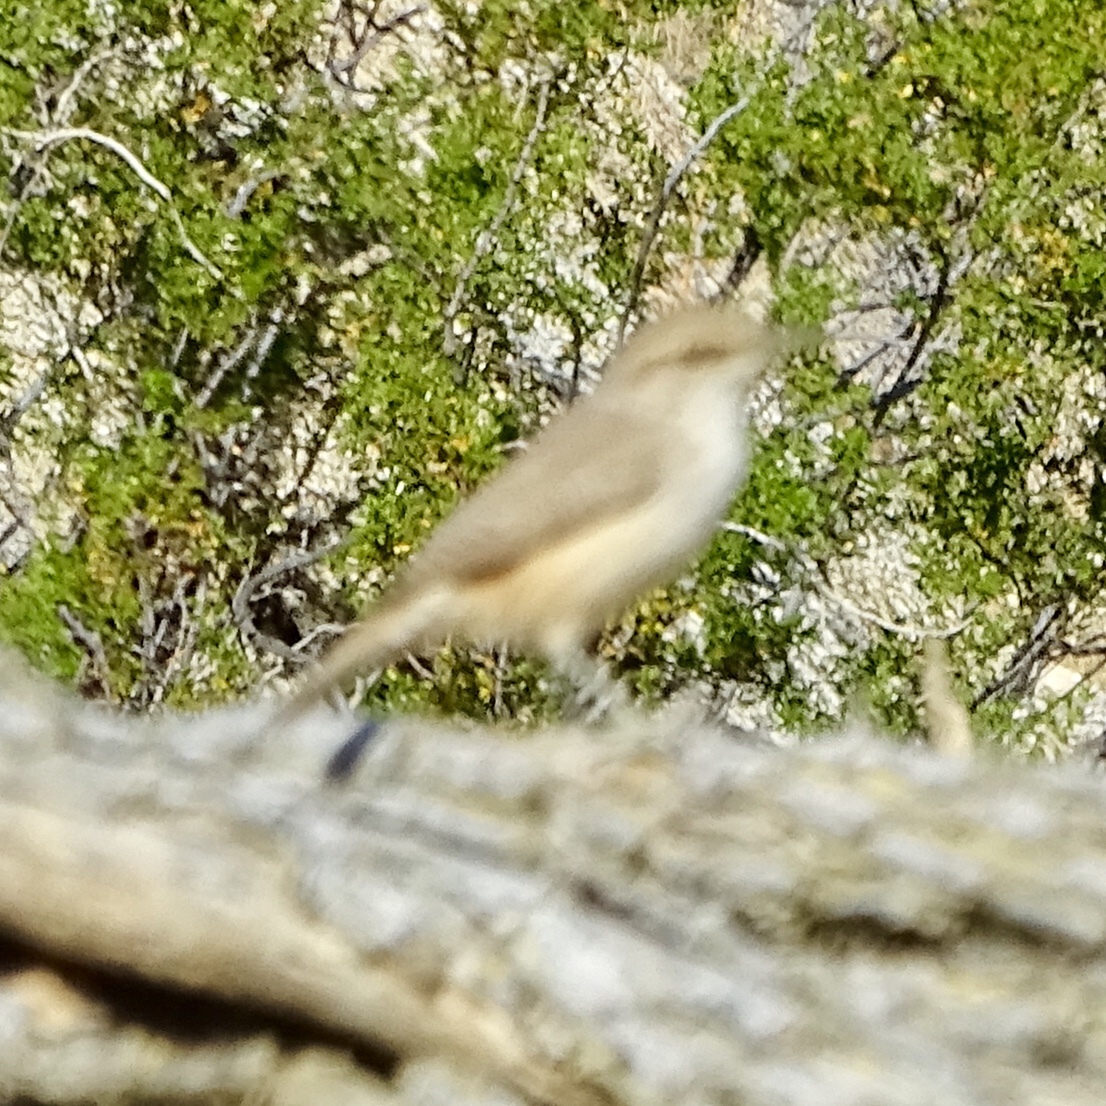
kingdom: Animalia
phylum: Chordata
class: Aves
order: Passeriformes
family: Troglodytidae
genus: Salpinctes
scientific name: Salpinctes obsoletus
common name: Rock wren
